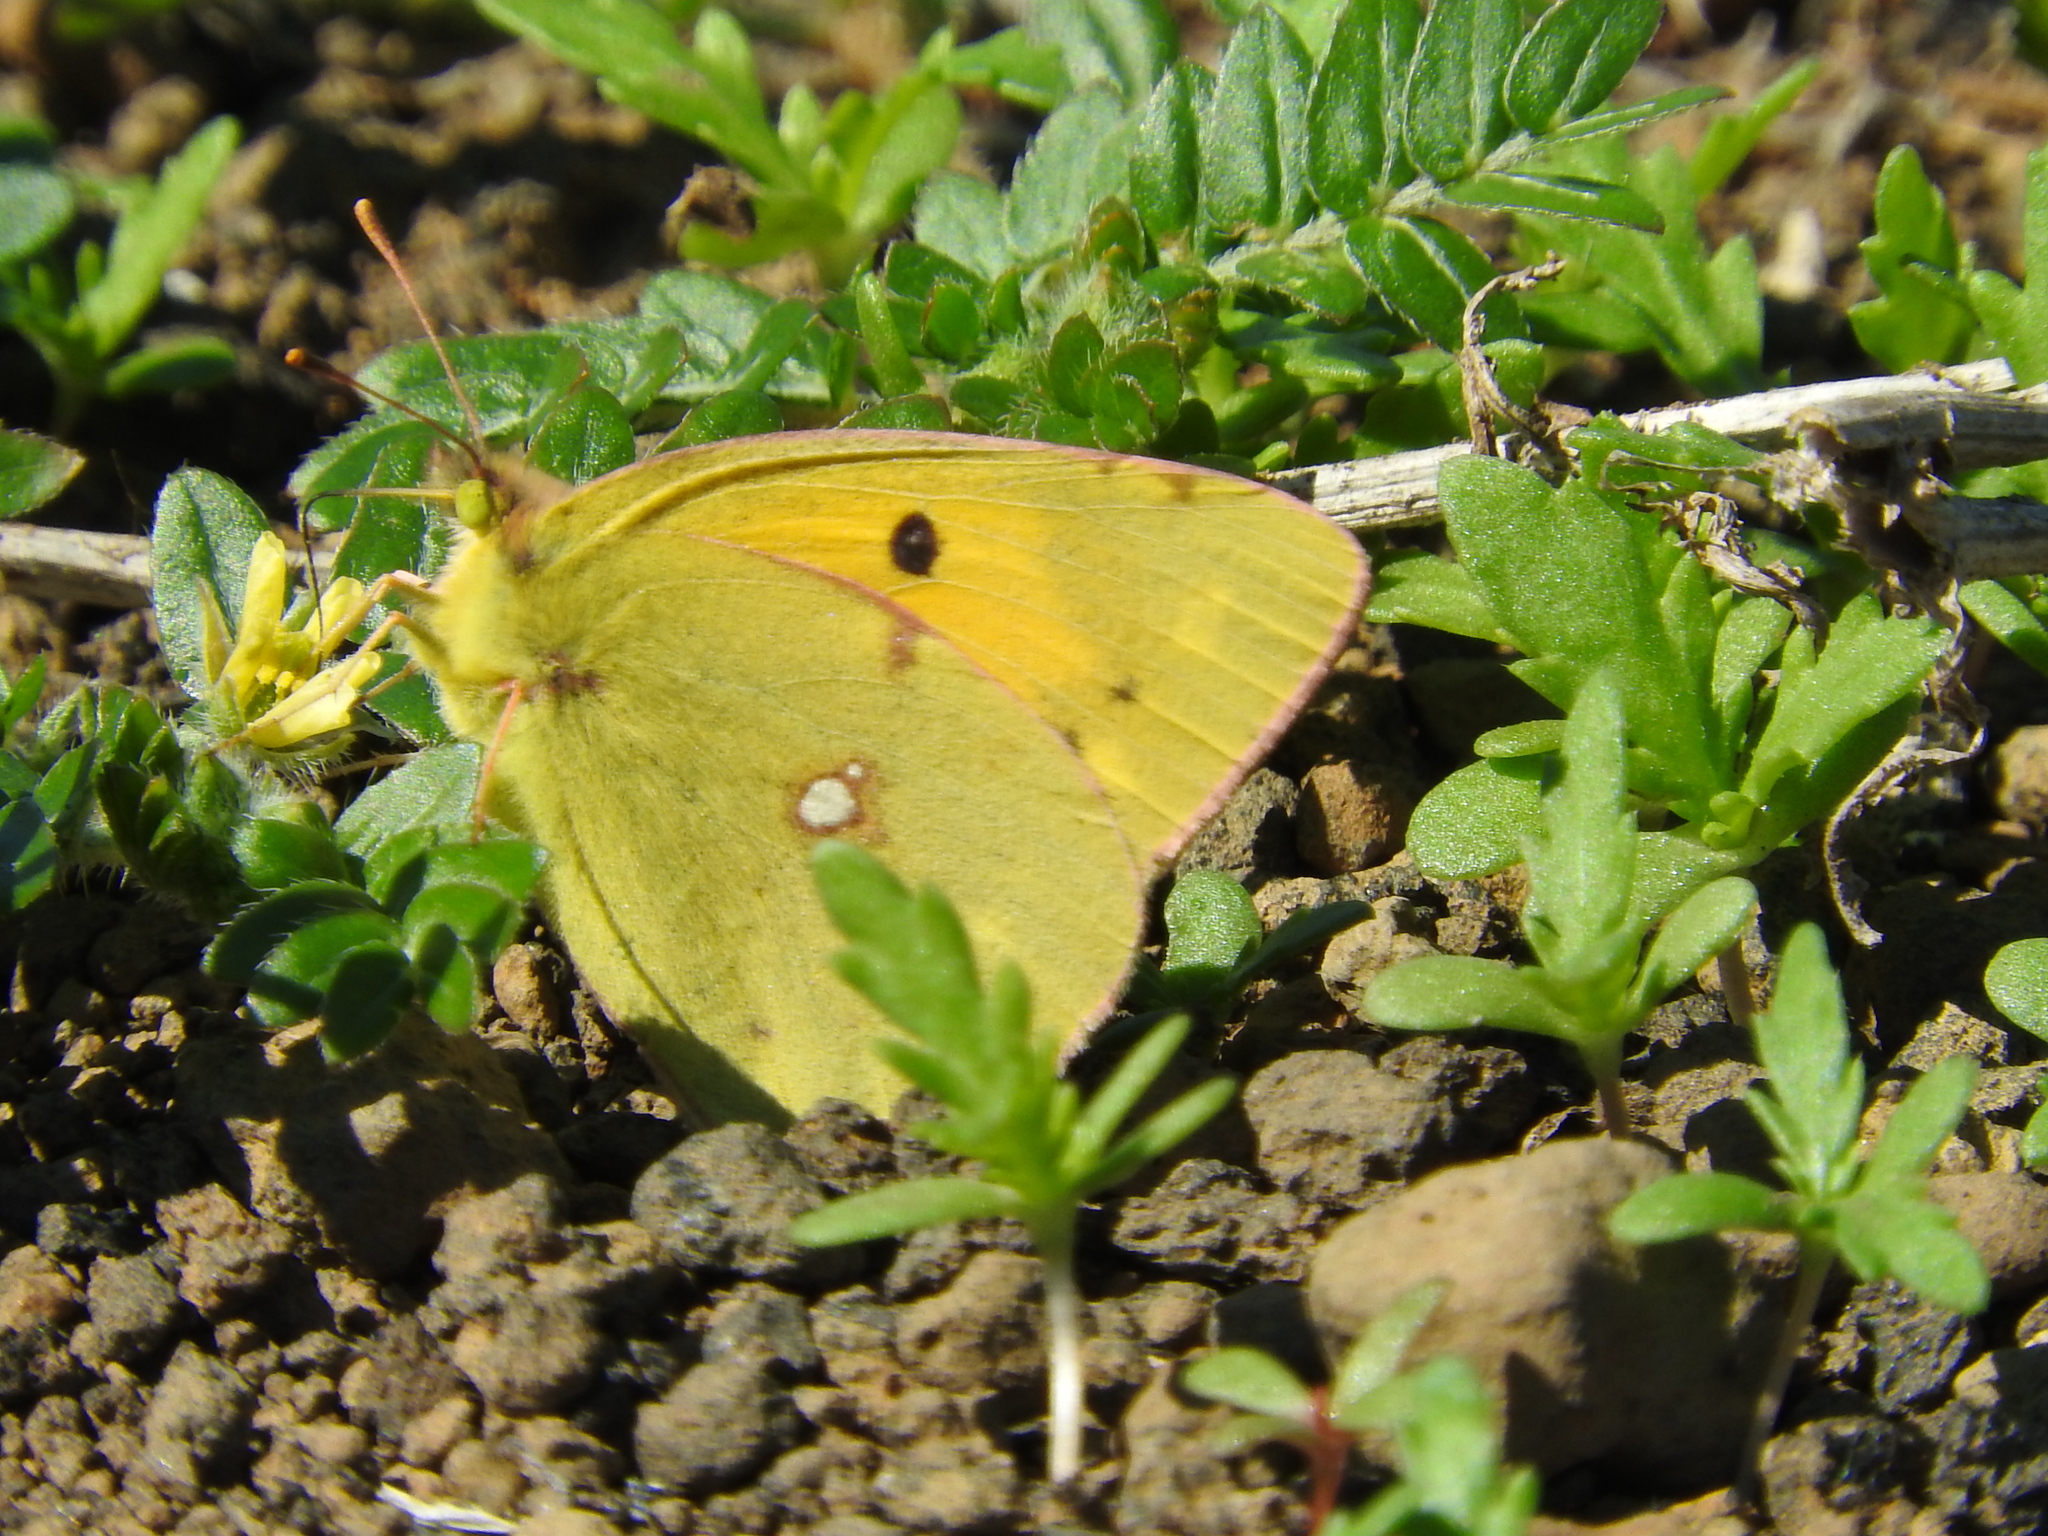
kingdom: Animalia
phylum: Arthropoda
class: Insecta
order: Lepidoptera
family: Pieridae
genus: Colias
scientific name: Colias croceus
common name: Clouded yellow
